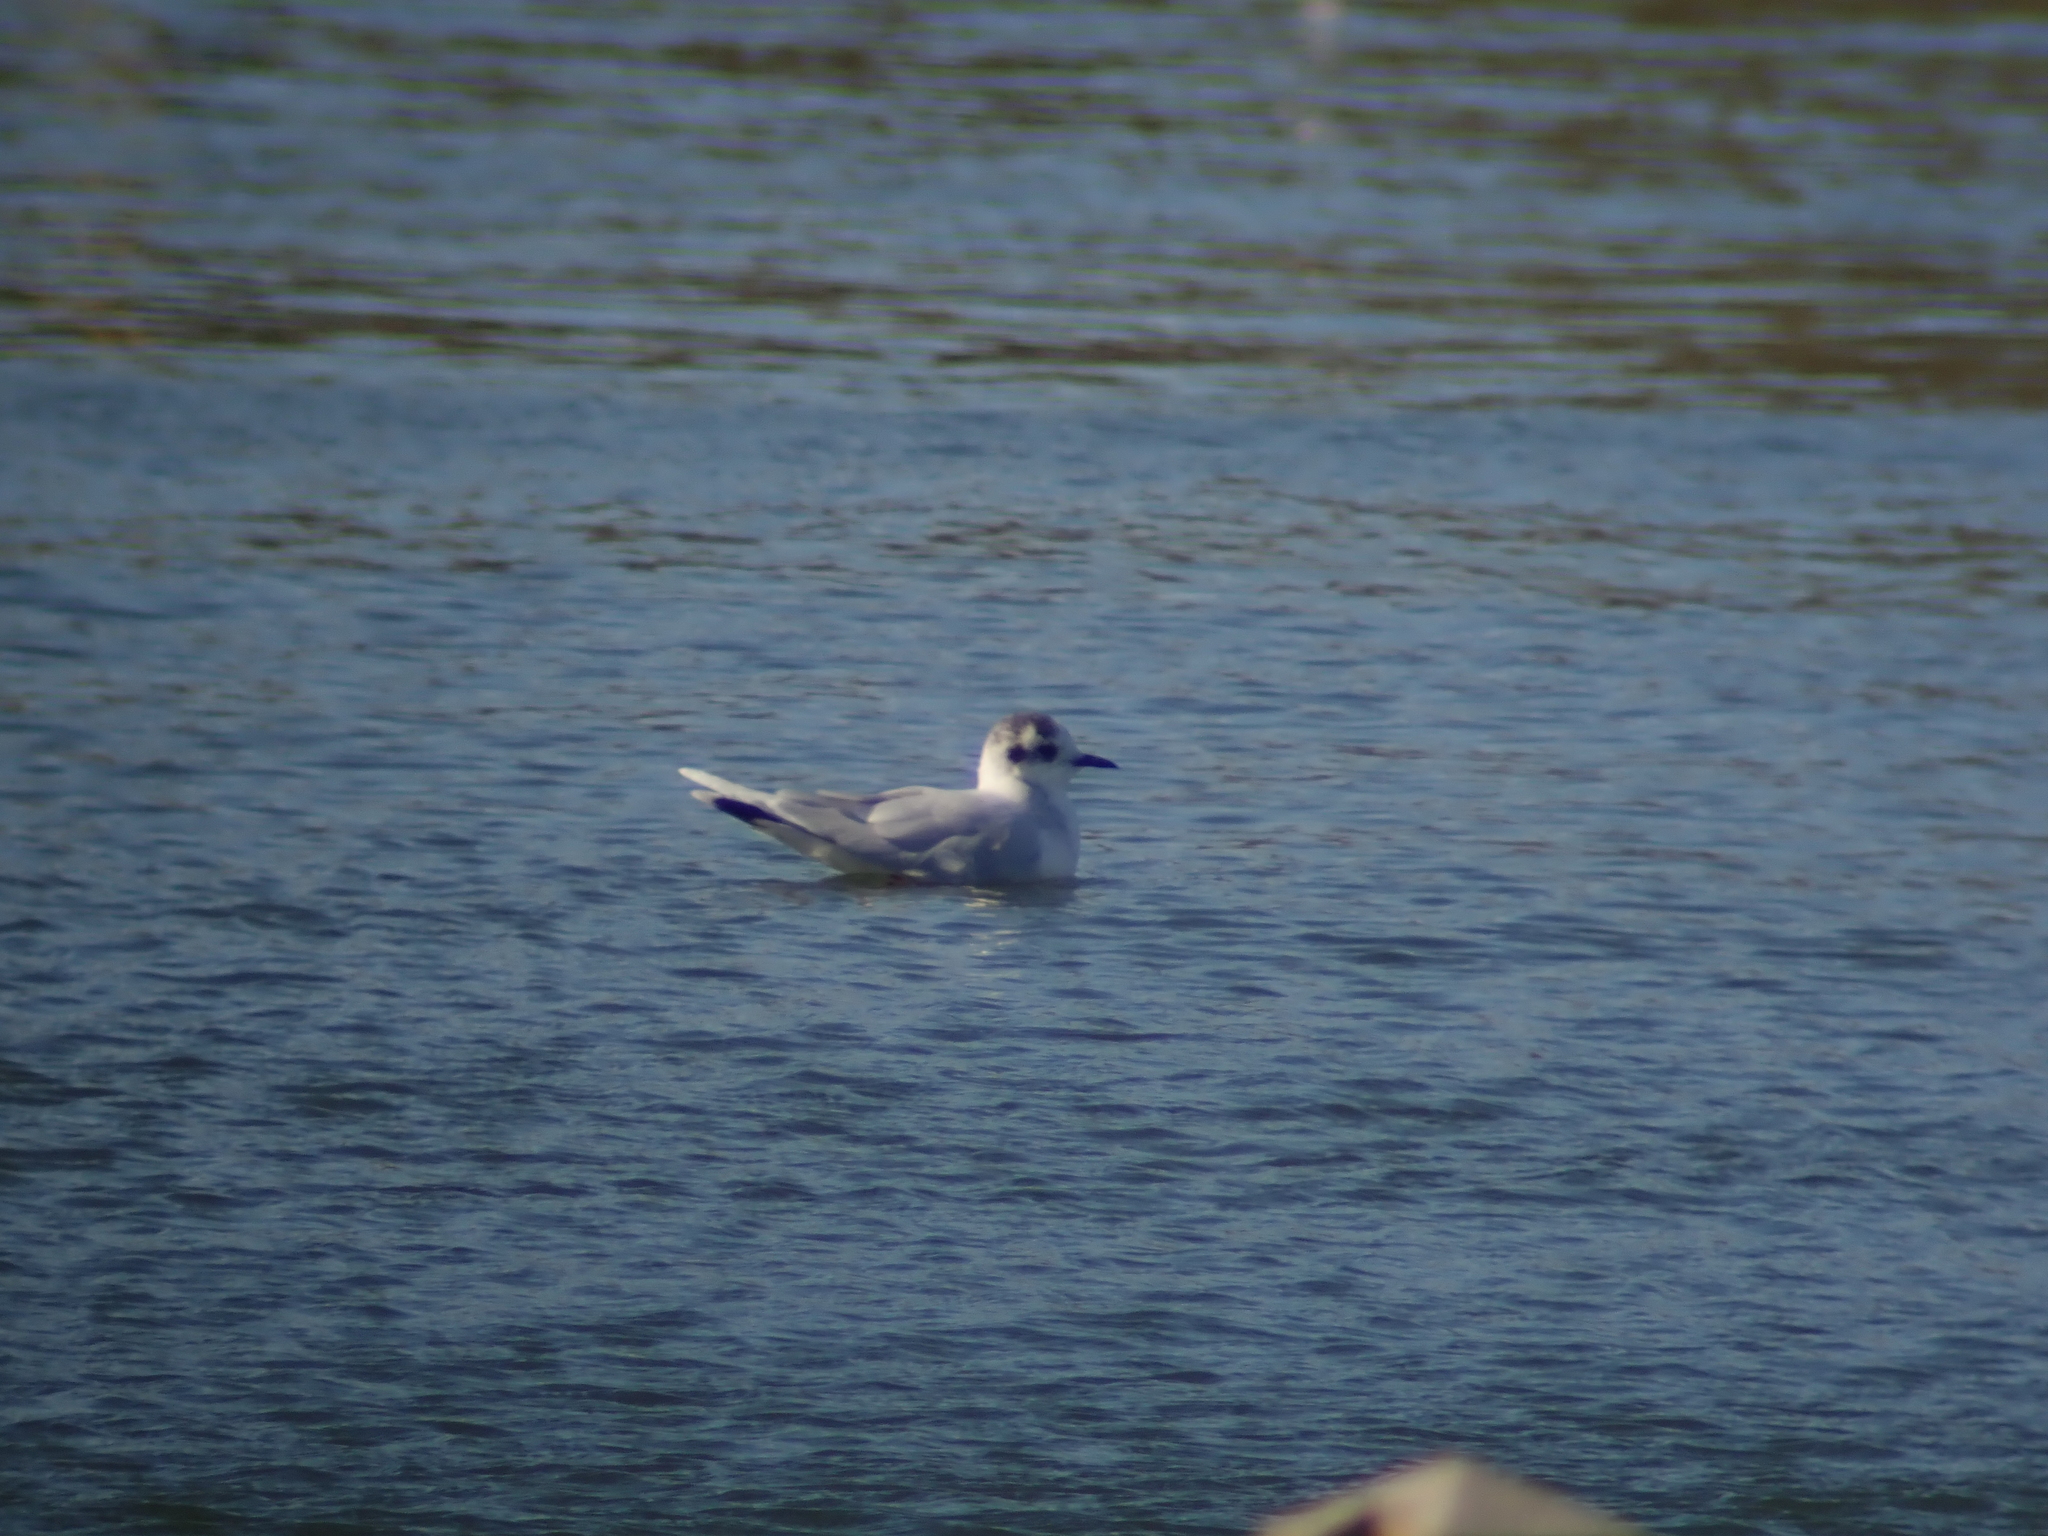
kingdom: Animalia
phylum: Chordata
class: Aves
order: Charadriiformes
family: Laridae
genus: Hydrocoloeus
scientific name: Hydrocoloeus minutus
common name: Little gull
